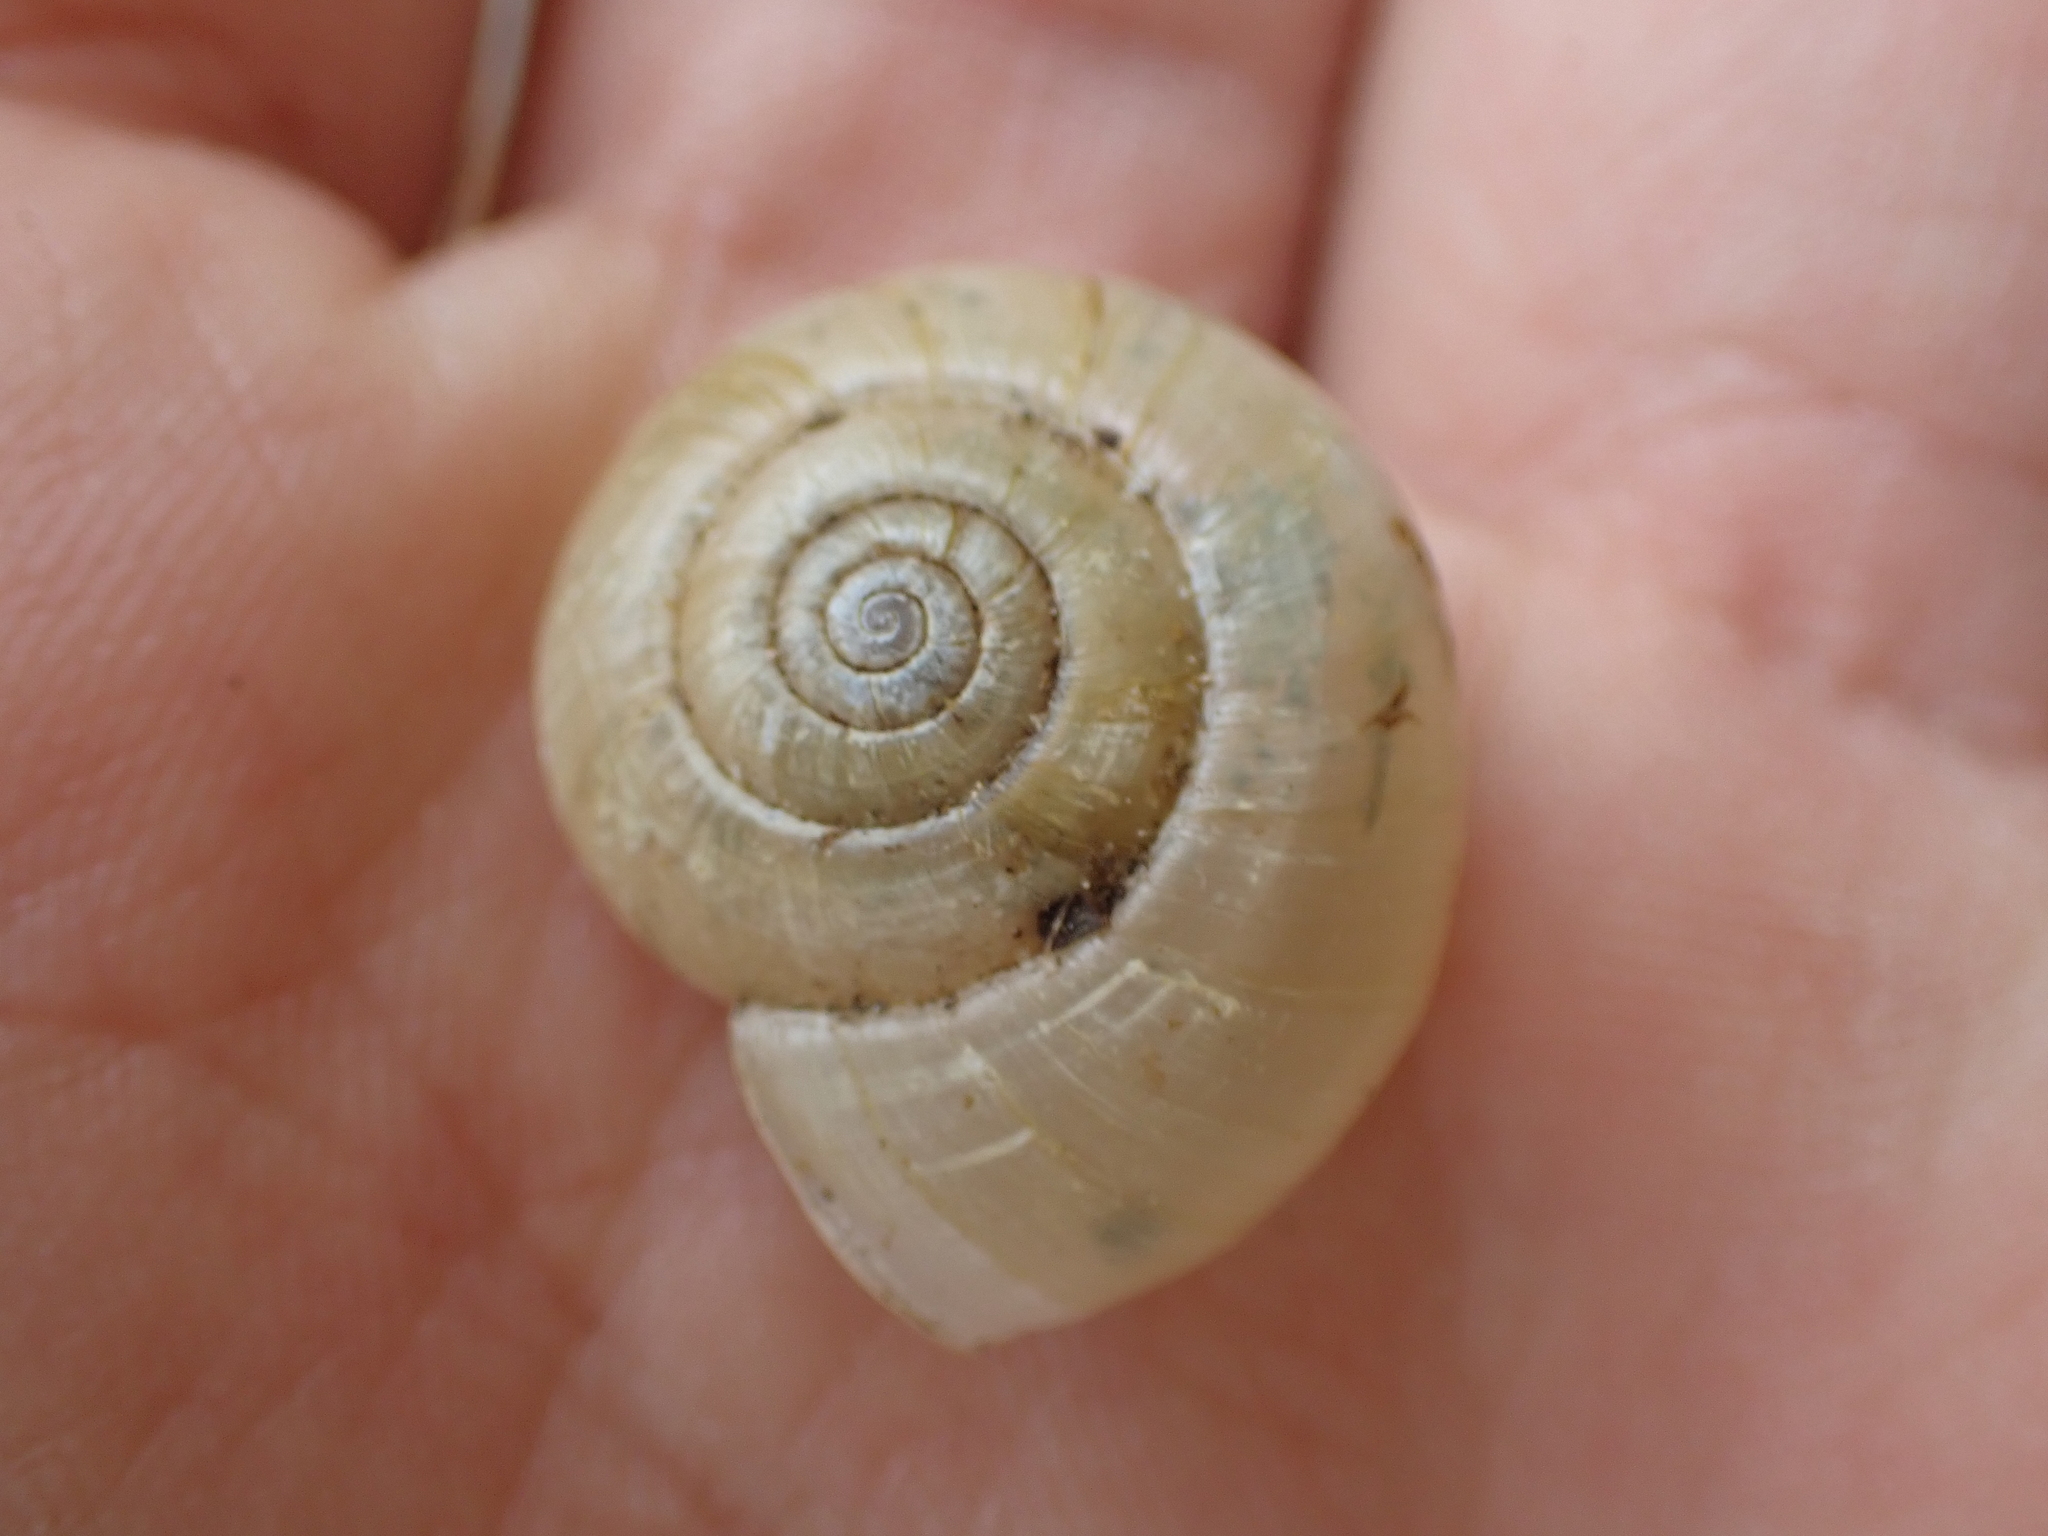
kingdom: Animalia
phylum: Mollusca
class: Gastropoda
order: Stylommatophora
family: Haplotrematidae
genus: Haplotrema
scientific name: Haplotrema concavum
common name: Gray-foot lancetooth
